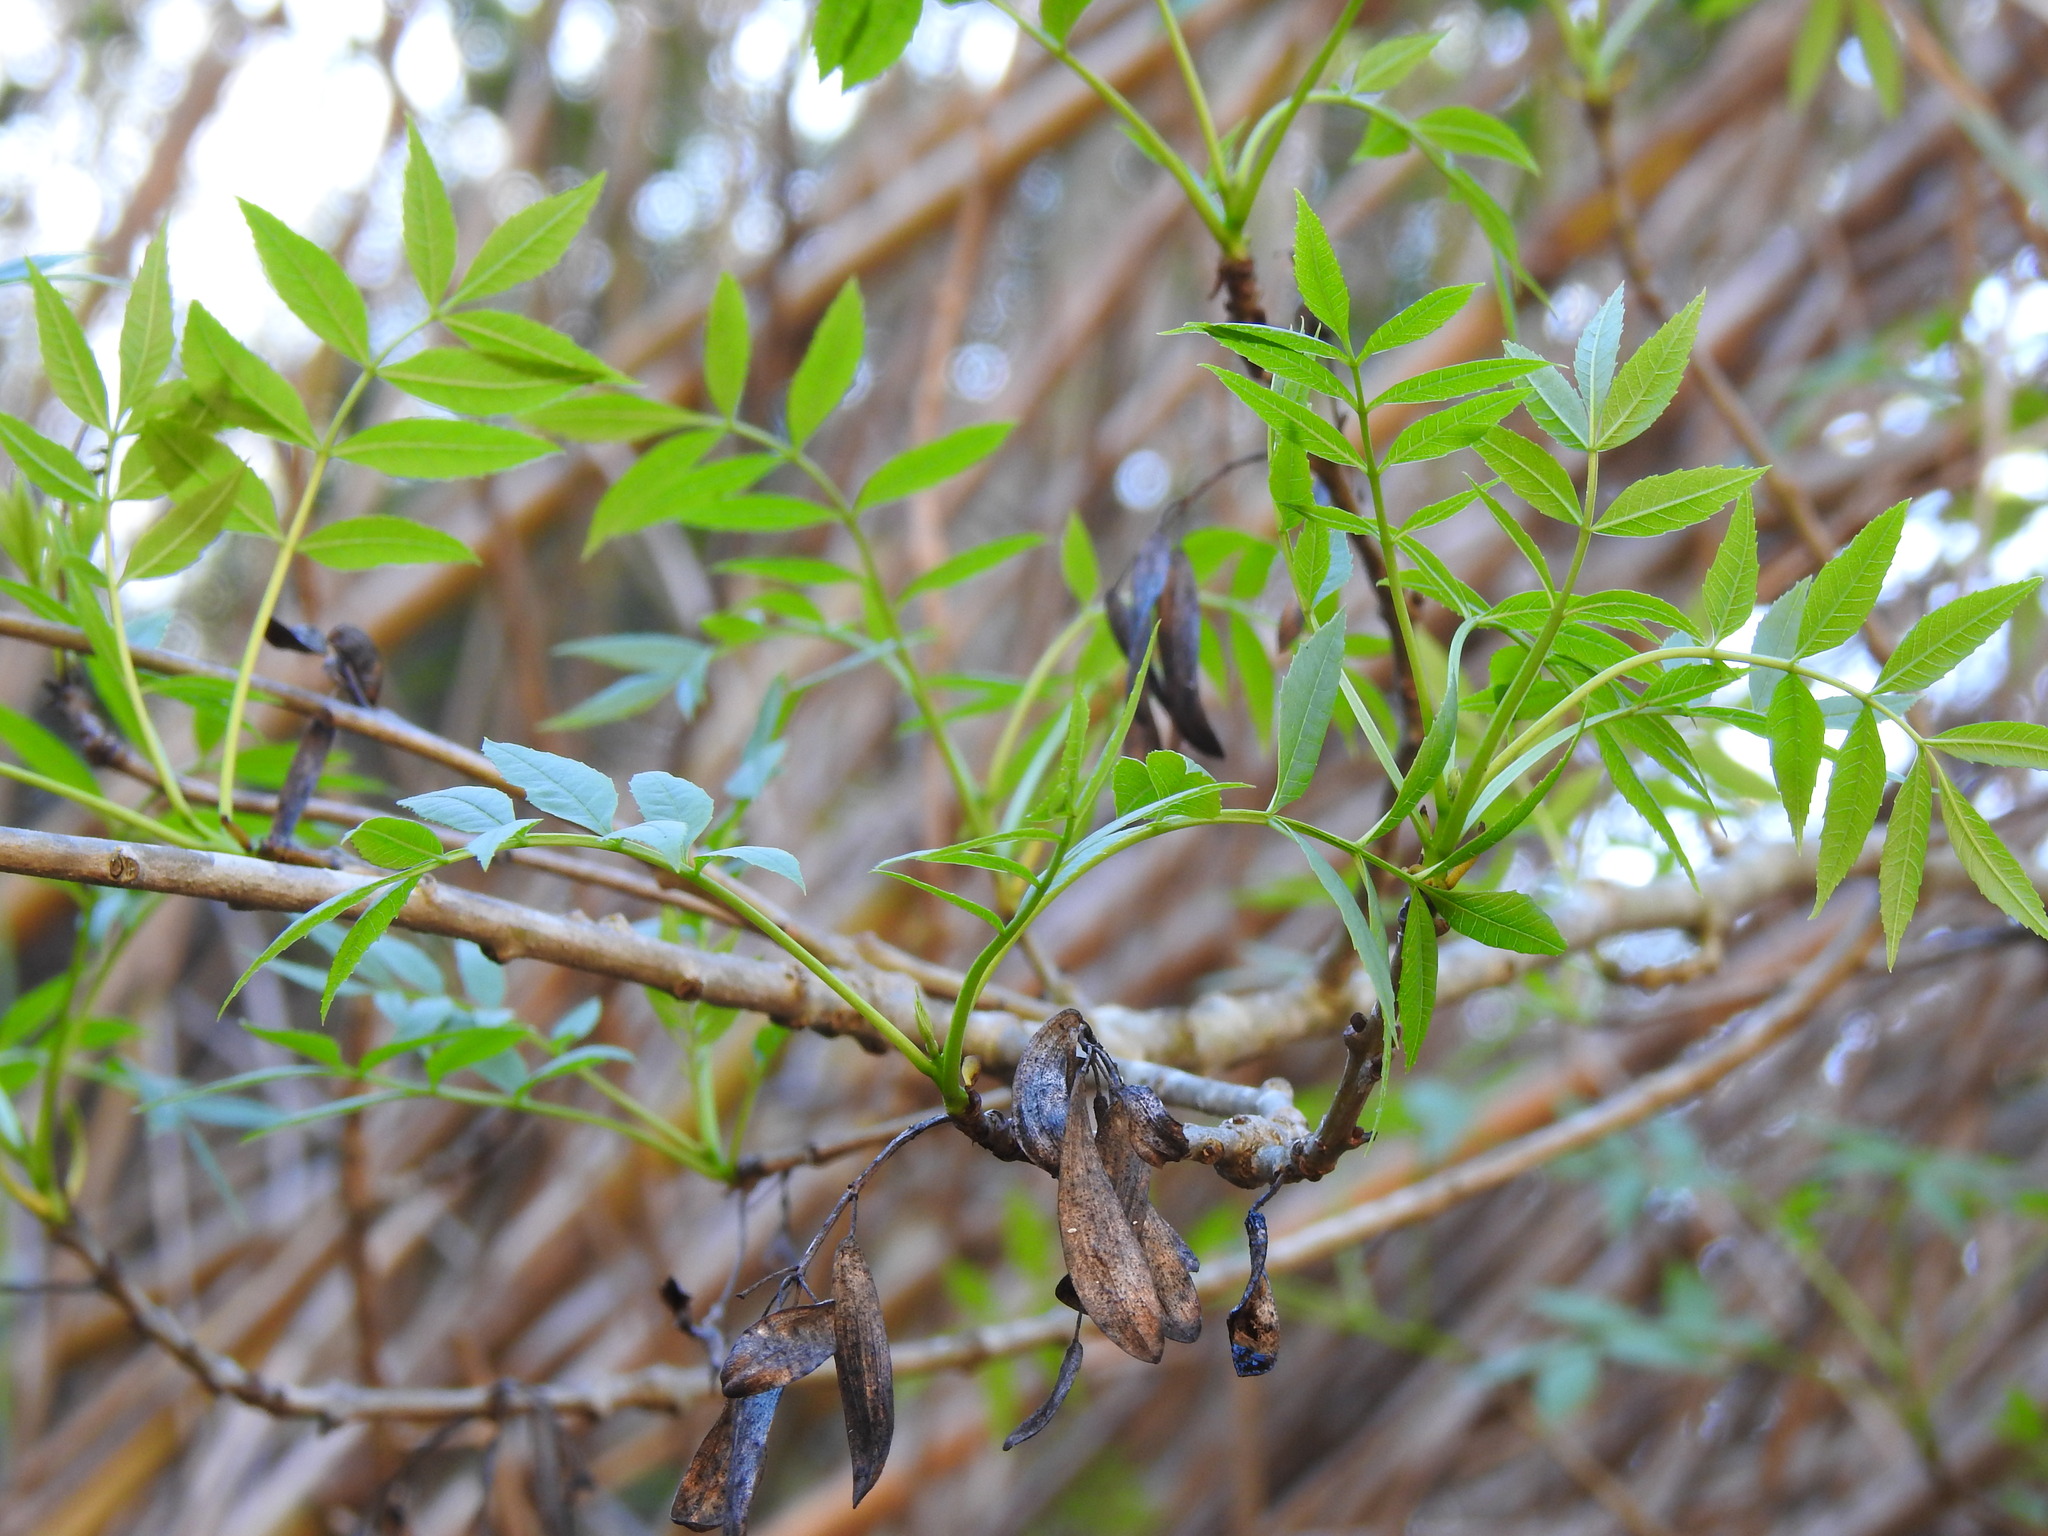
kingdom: Plantae
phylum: Tracheophyta
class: Magnoliopsida
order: Lamiales
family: Oleaceae
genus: Fraxinus
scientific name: Fraxinus angustifolia
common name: Narrow-leafed ash
